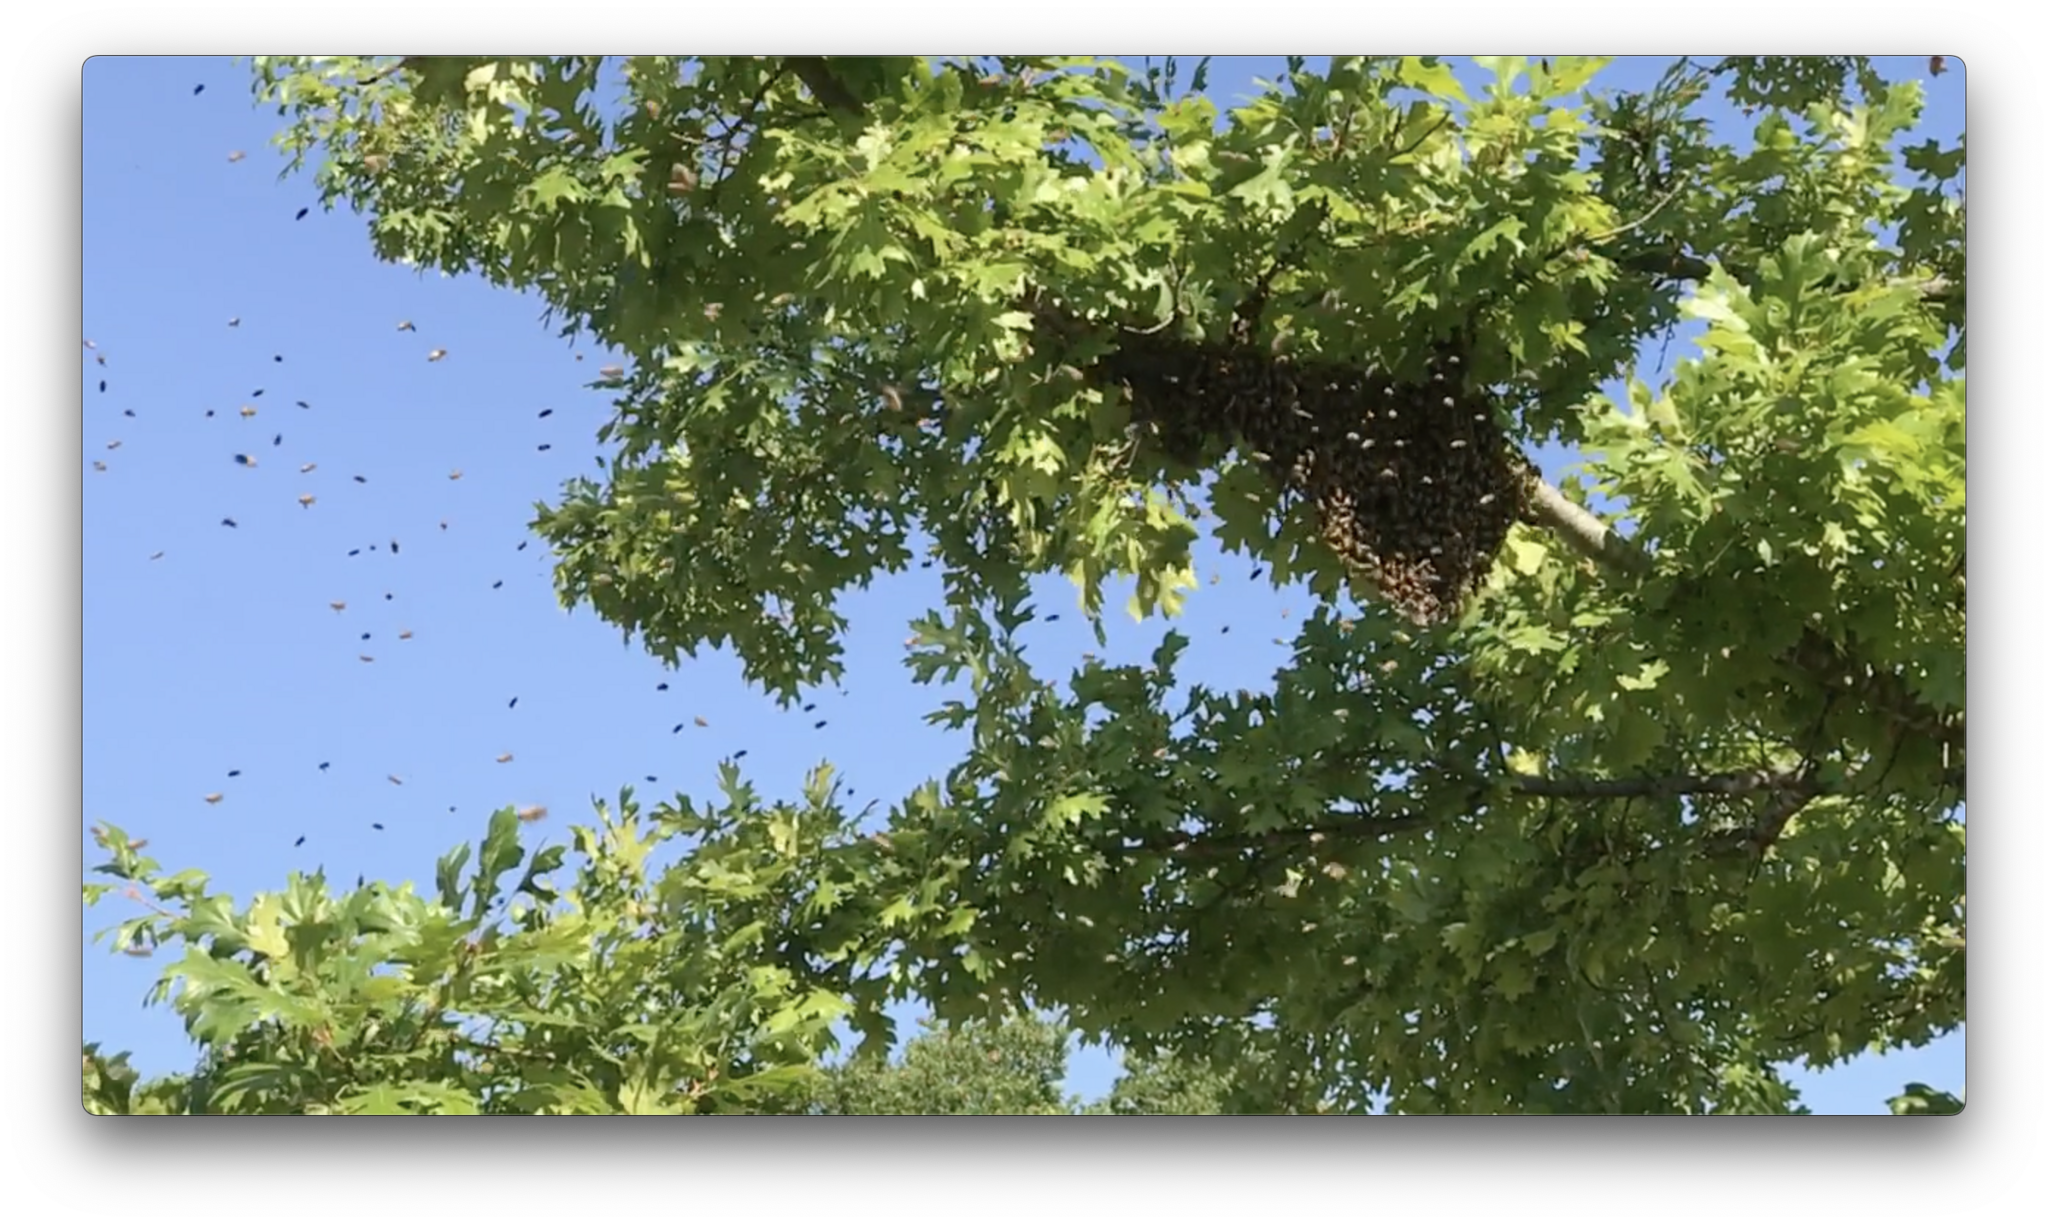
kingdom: Animalia
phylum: Arthropoda
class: Insecta
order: Hymenoptera
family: Apidae
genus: Apis
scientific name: Apis mellifera
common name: Honey bee
